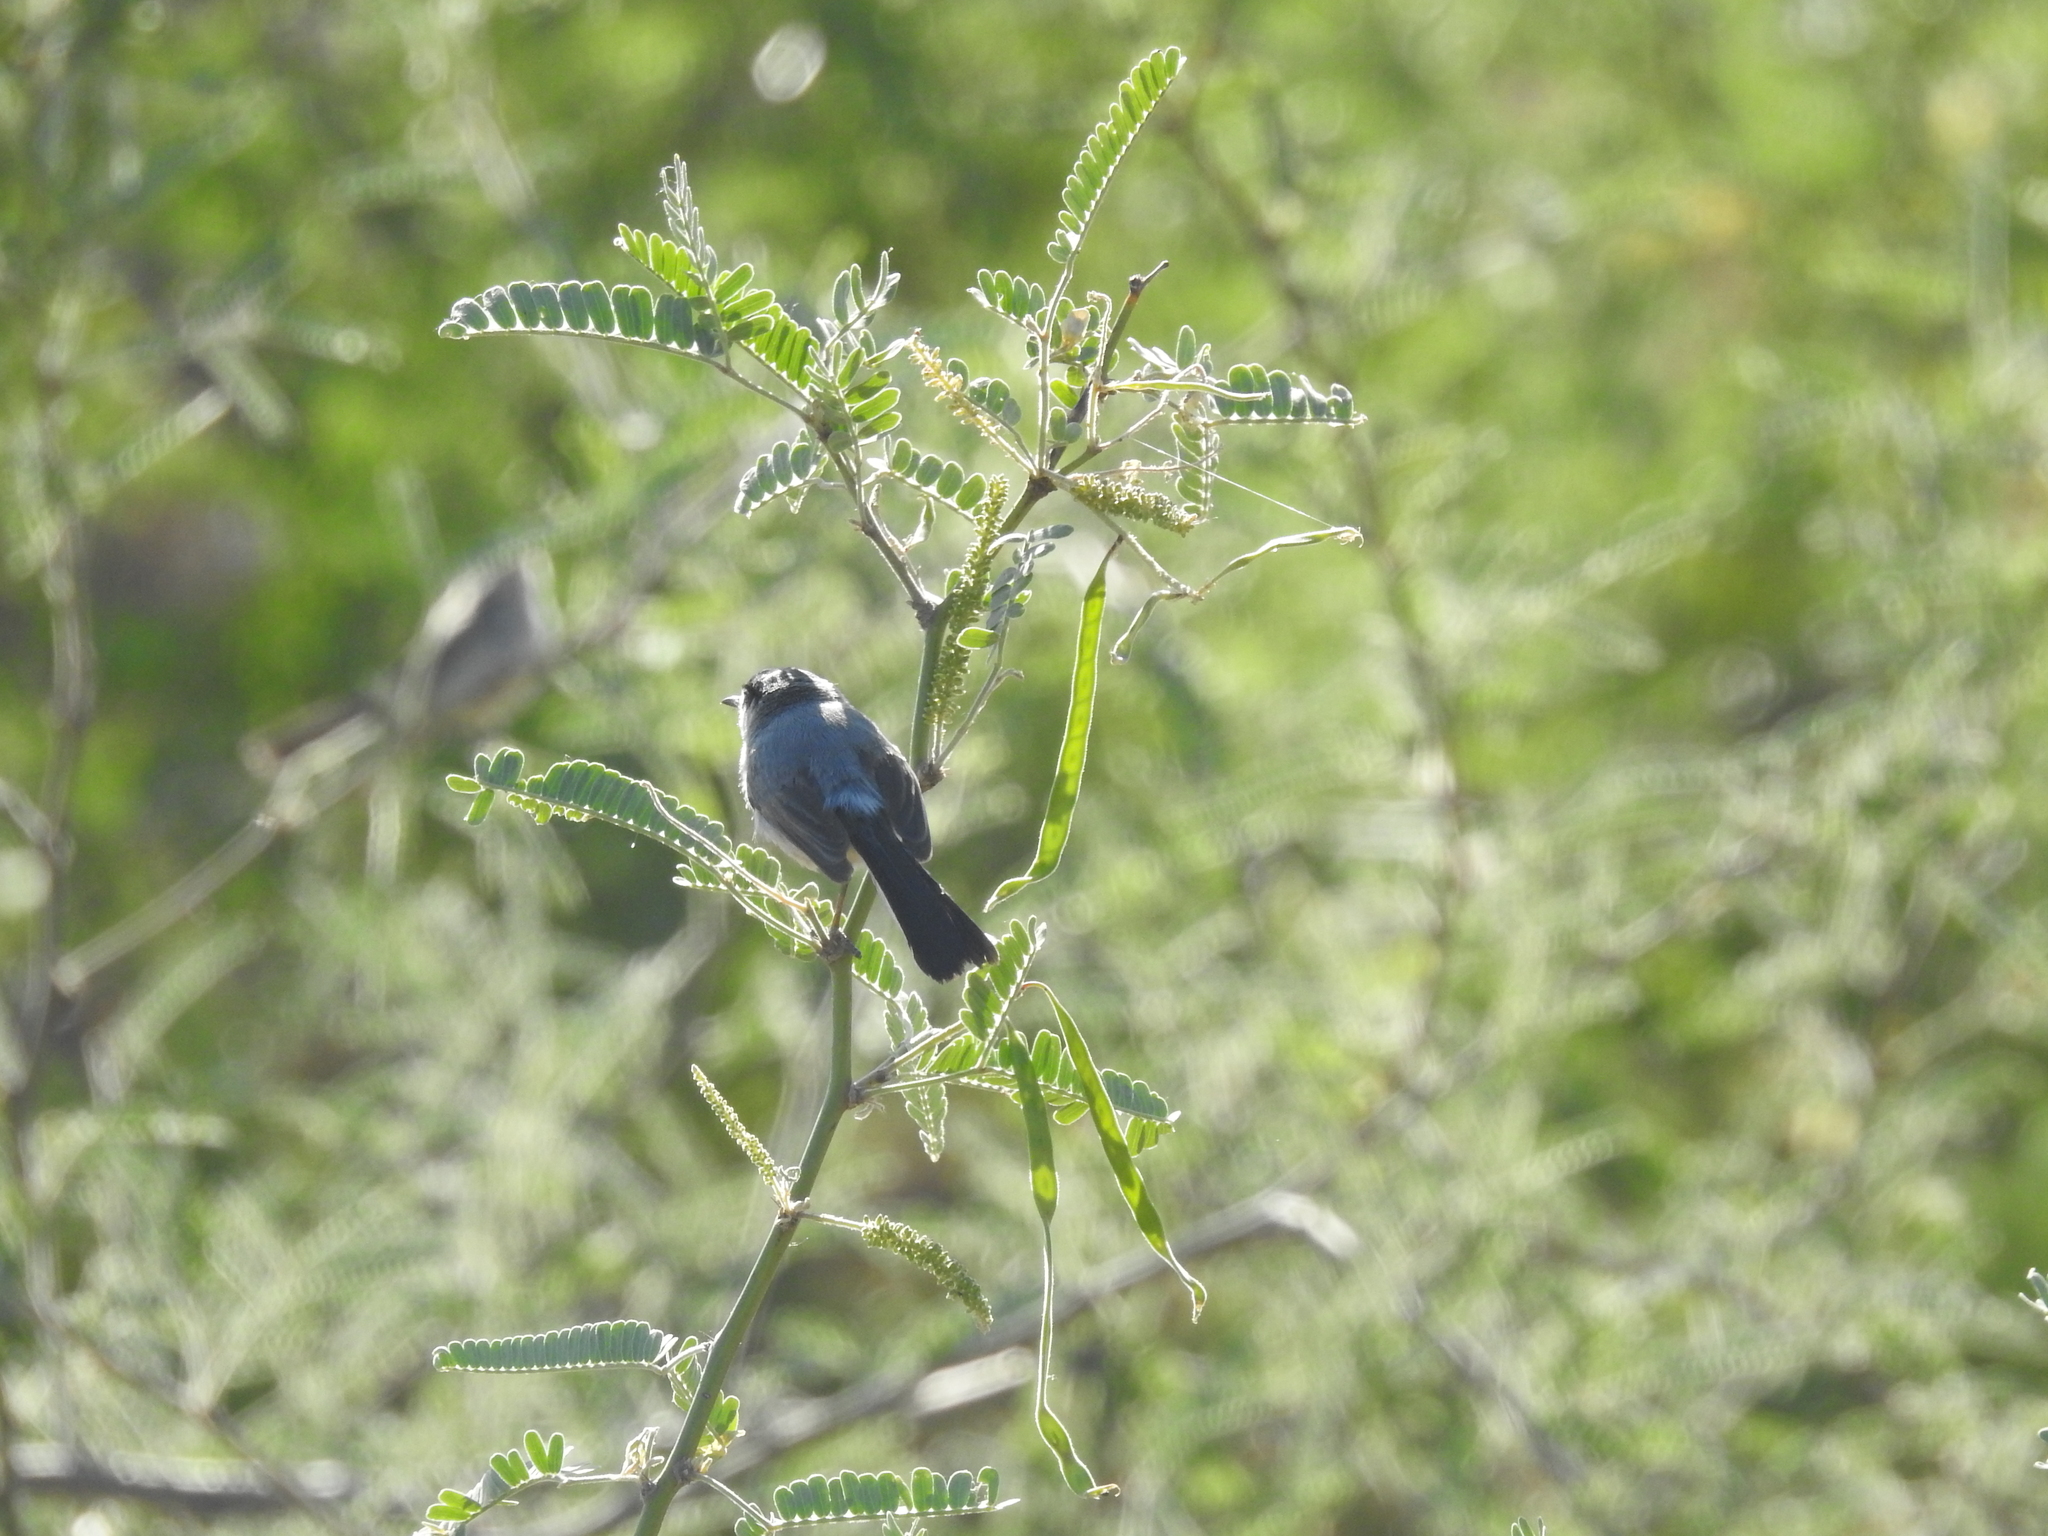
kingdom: Animalia
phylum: Chordata
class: Aves
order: Passeriformes
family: Polioptilidae
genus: Polioptila
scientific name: Polioptila melanura
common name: Black-tailed gnatcatcher
